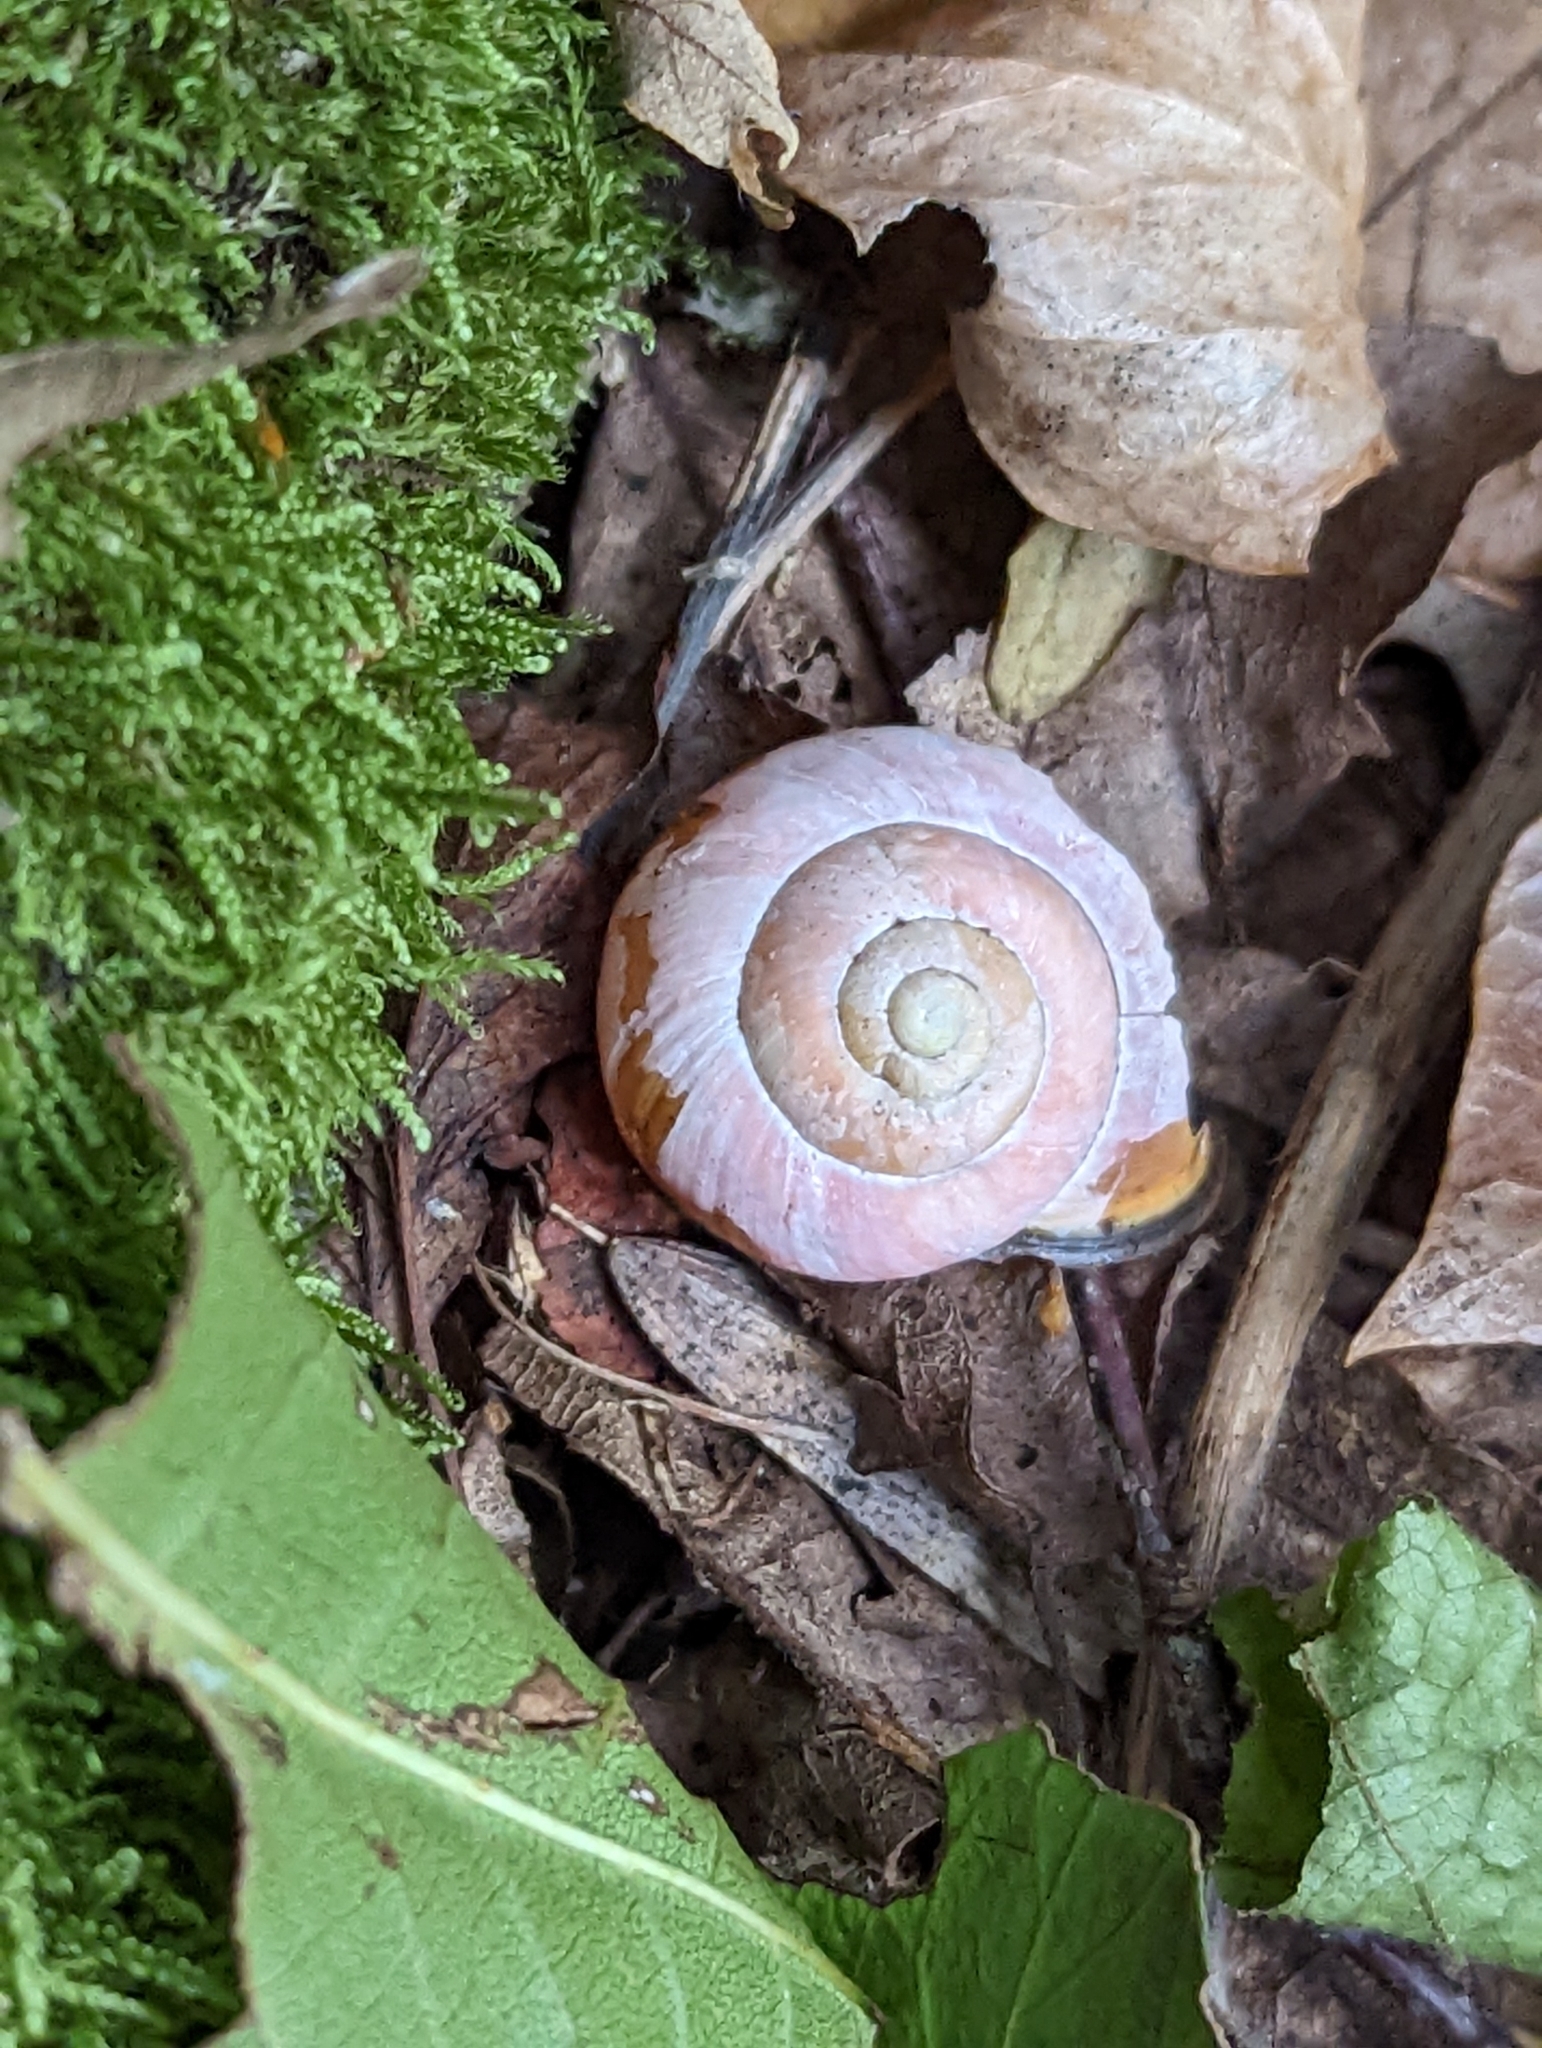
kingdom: Animalia
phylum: Mollusca
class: Gastropoda
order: Stylommatophora
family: Helicidae
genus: Cepaea
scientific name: Cepaea nemoralis
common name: Grovesnail
